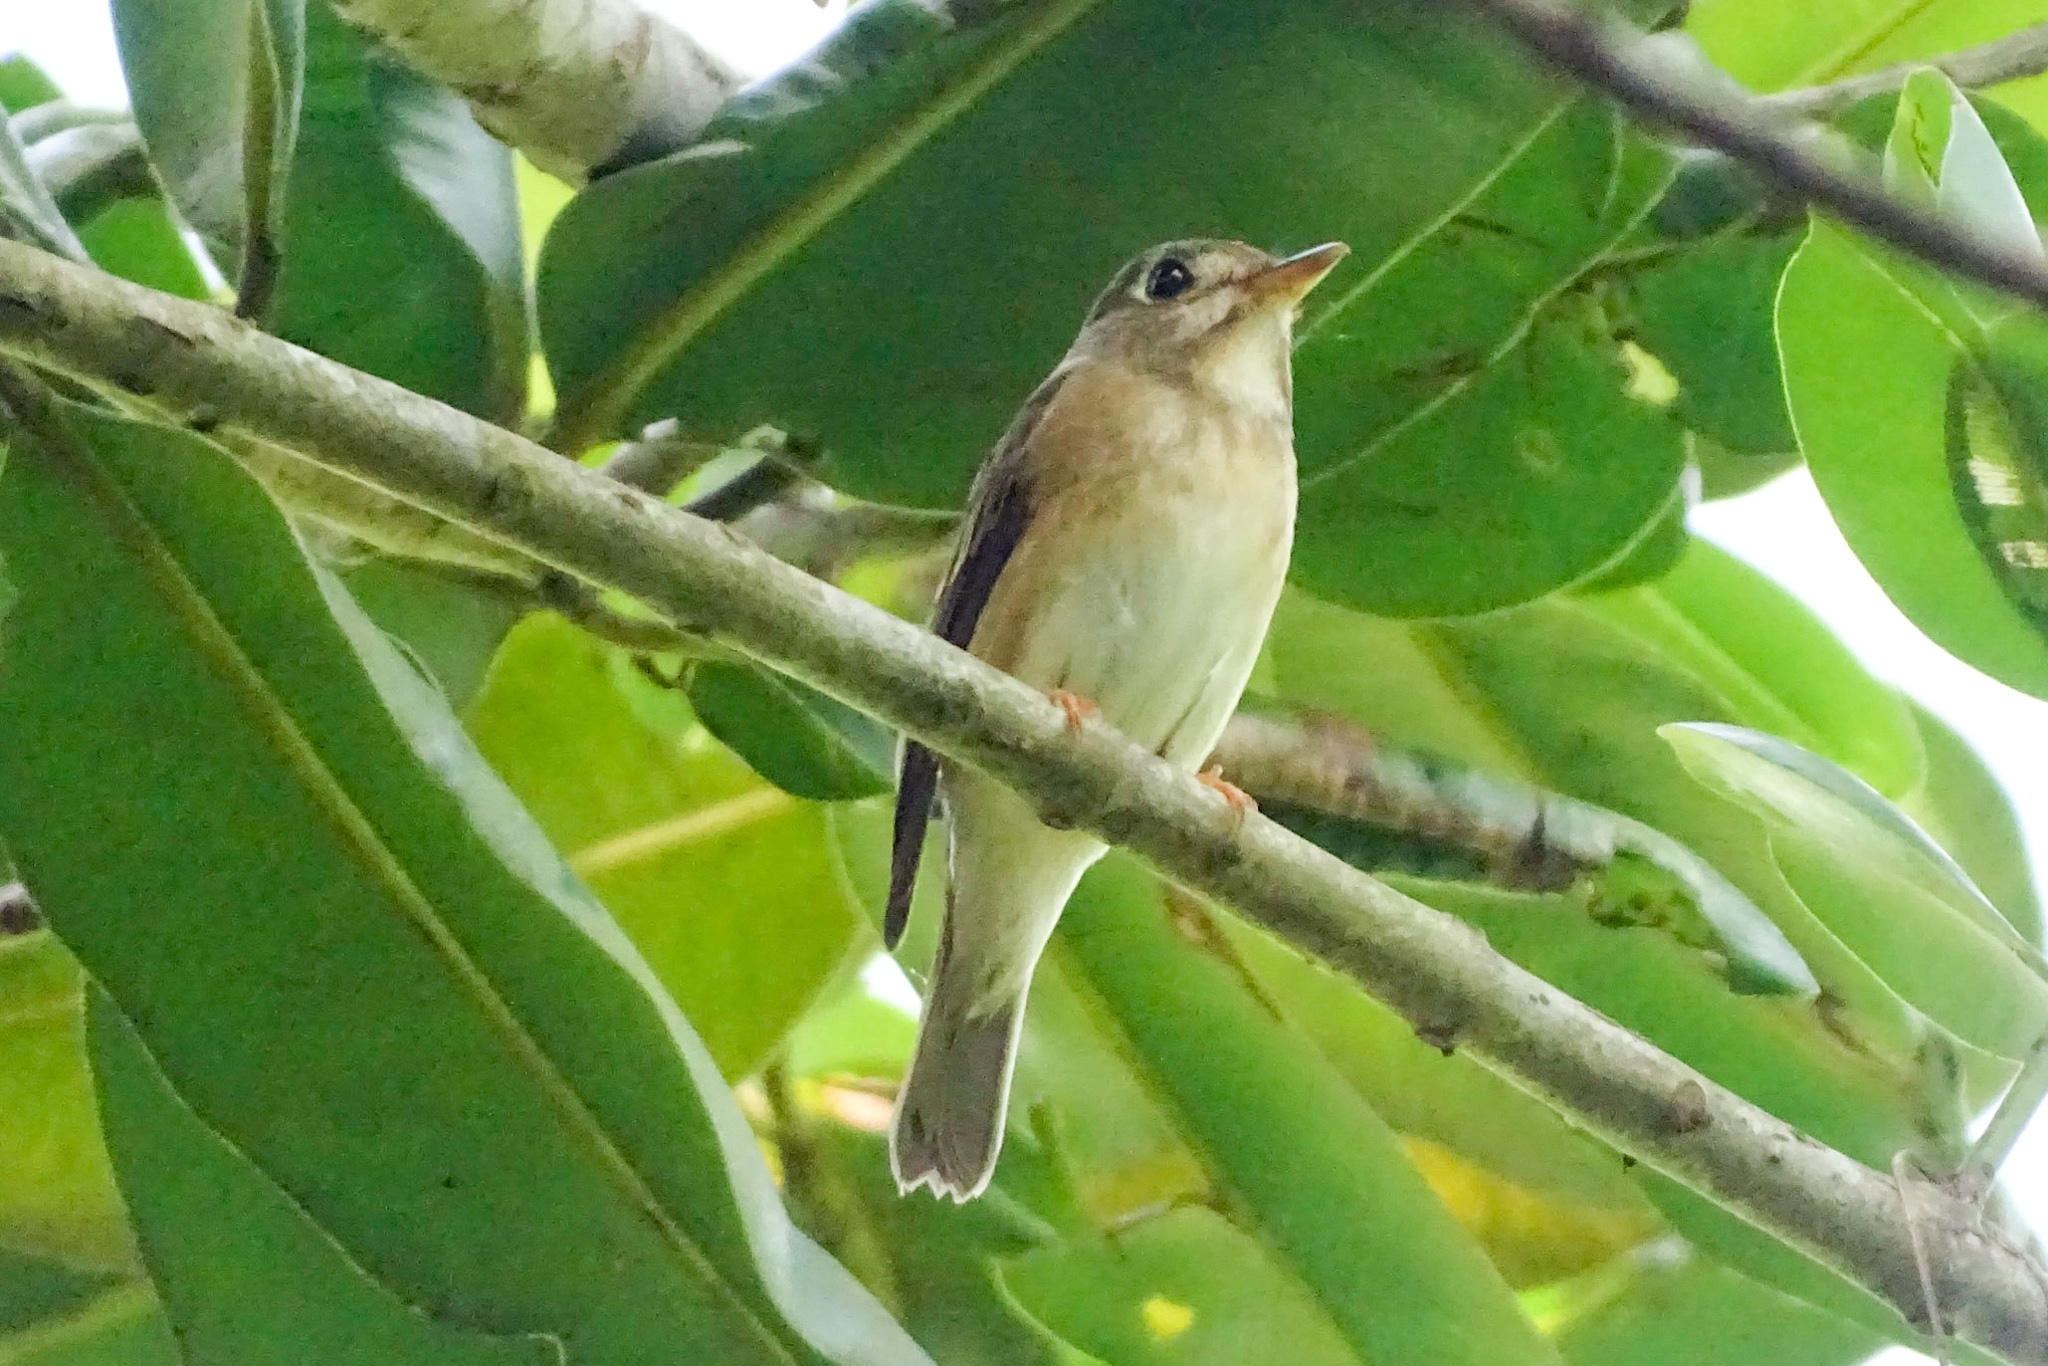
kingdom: Animalia
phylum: Chordata
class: Aves
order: Passeriformes
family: Muscicapidae
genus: Muscicapa
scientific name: Muscicapa muttui
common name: Brown-breasted flycatcher
